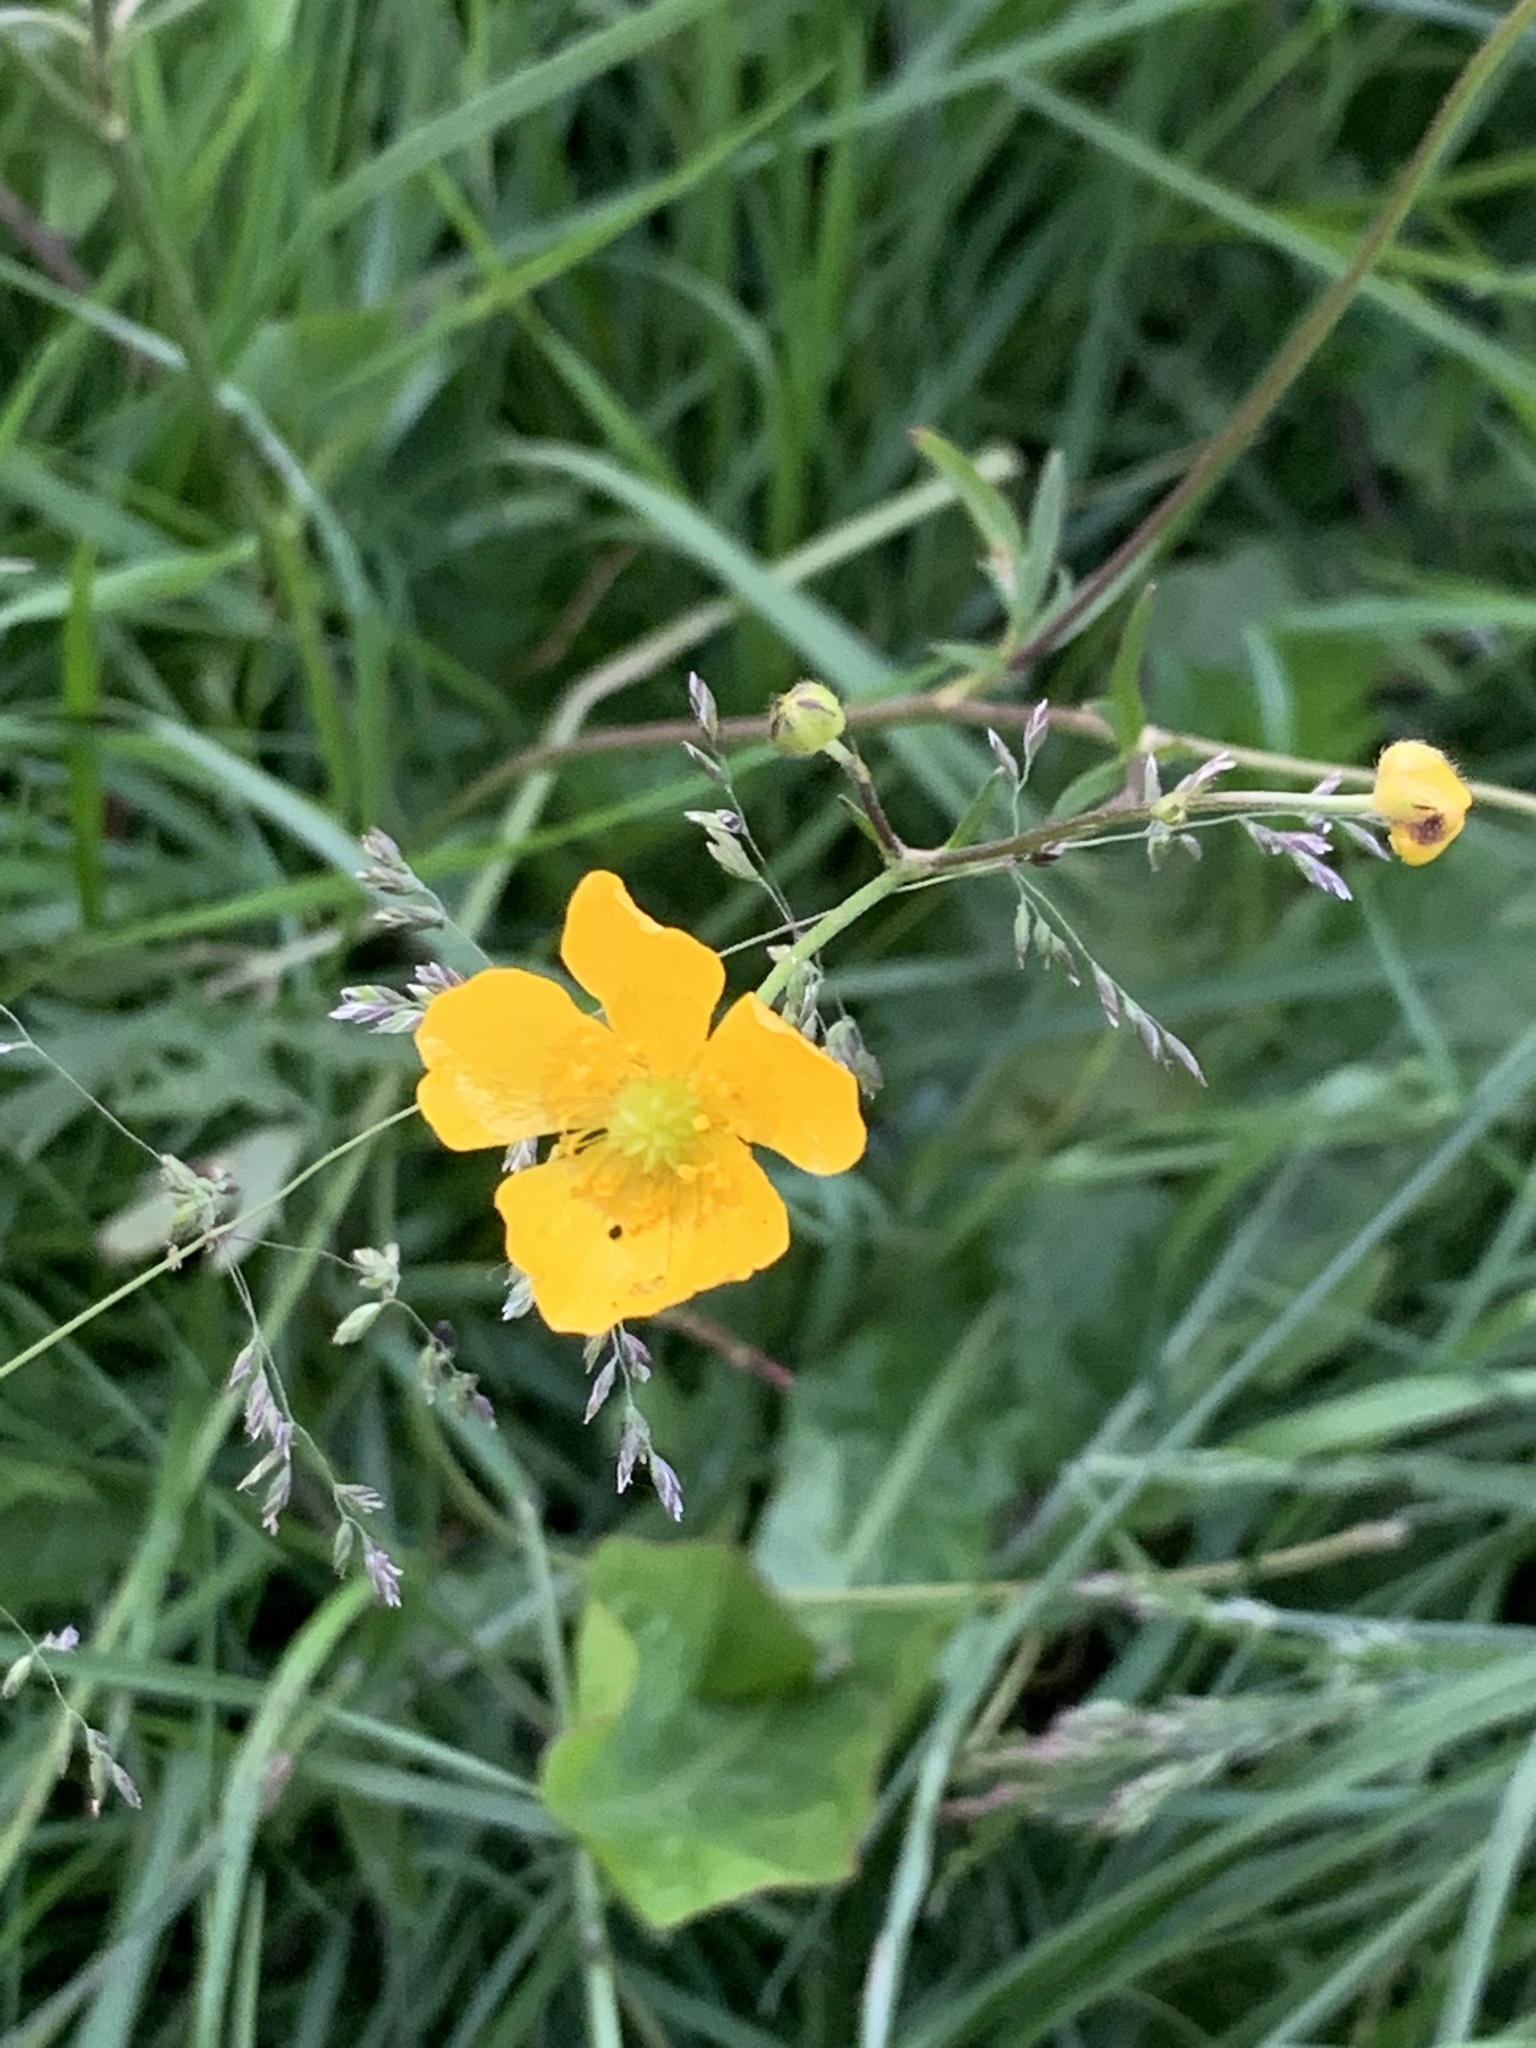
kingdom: Plantae
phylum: Tracheophyta
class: Magnoliopsida
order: Ranunculales
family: Ranunculaceae
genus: Ranunculus
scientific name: Ranunculus acris
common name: Meadow buttercup
